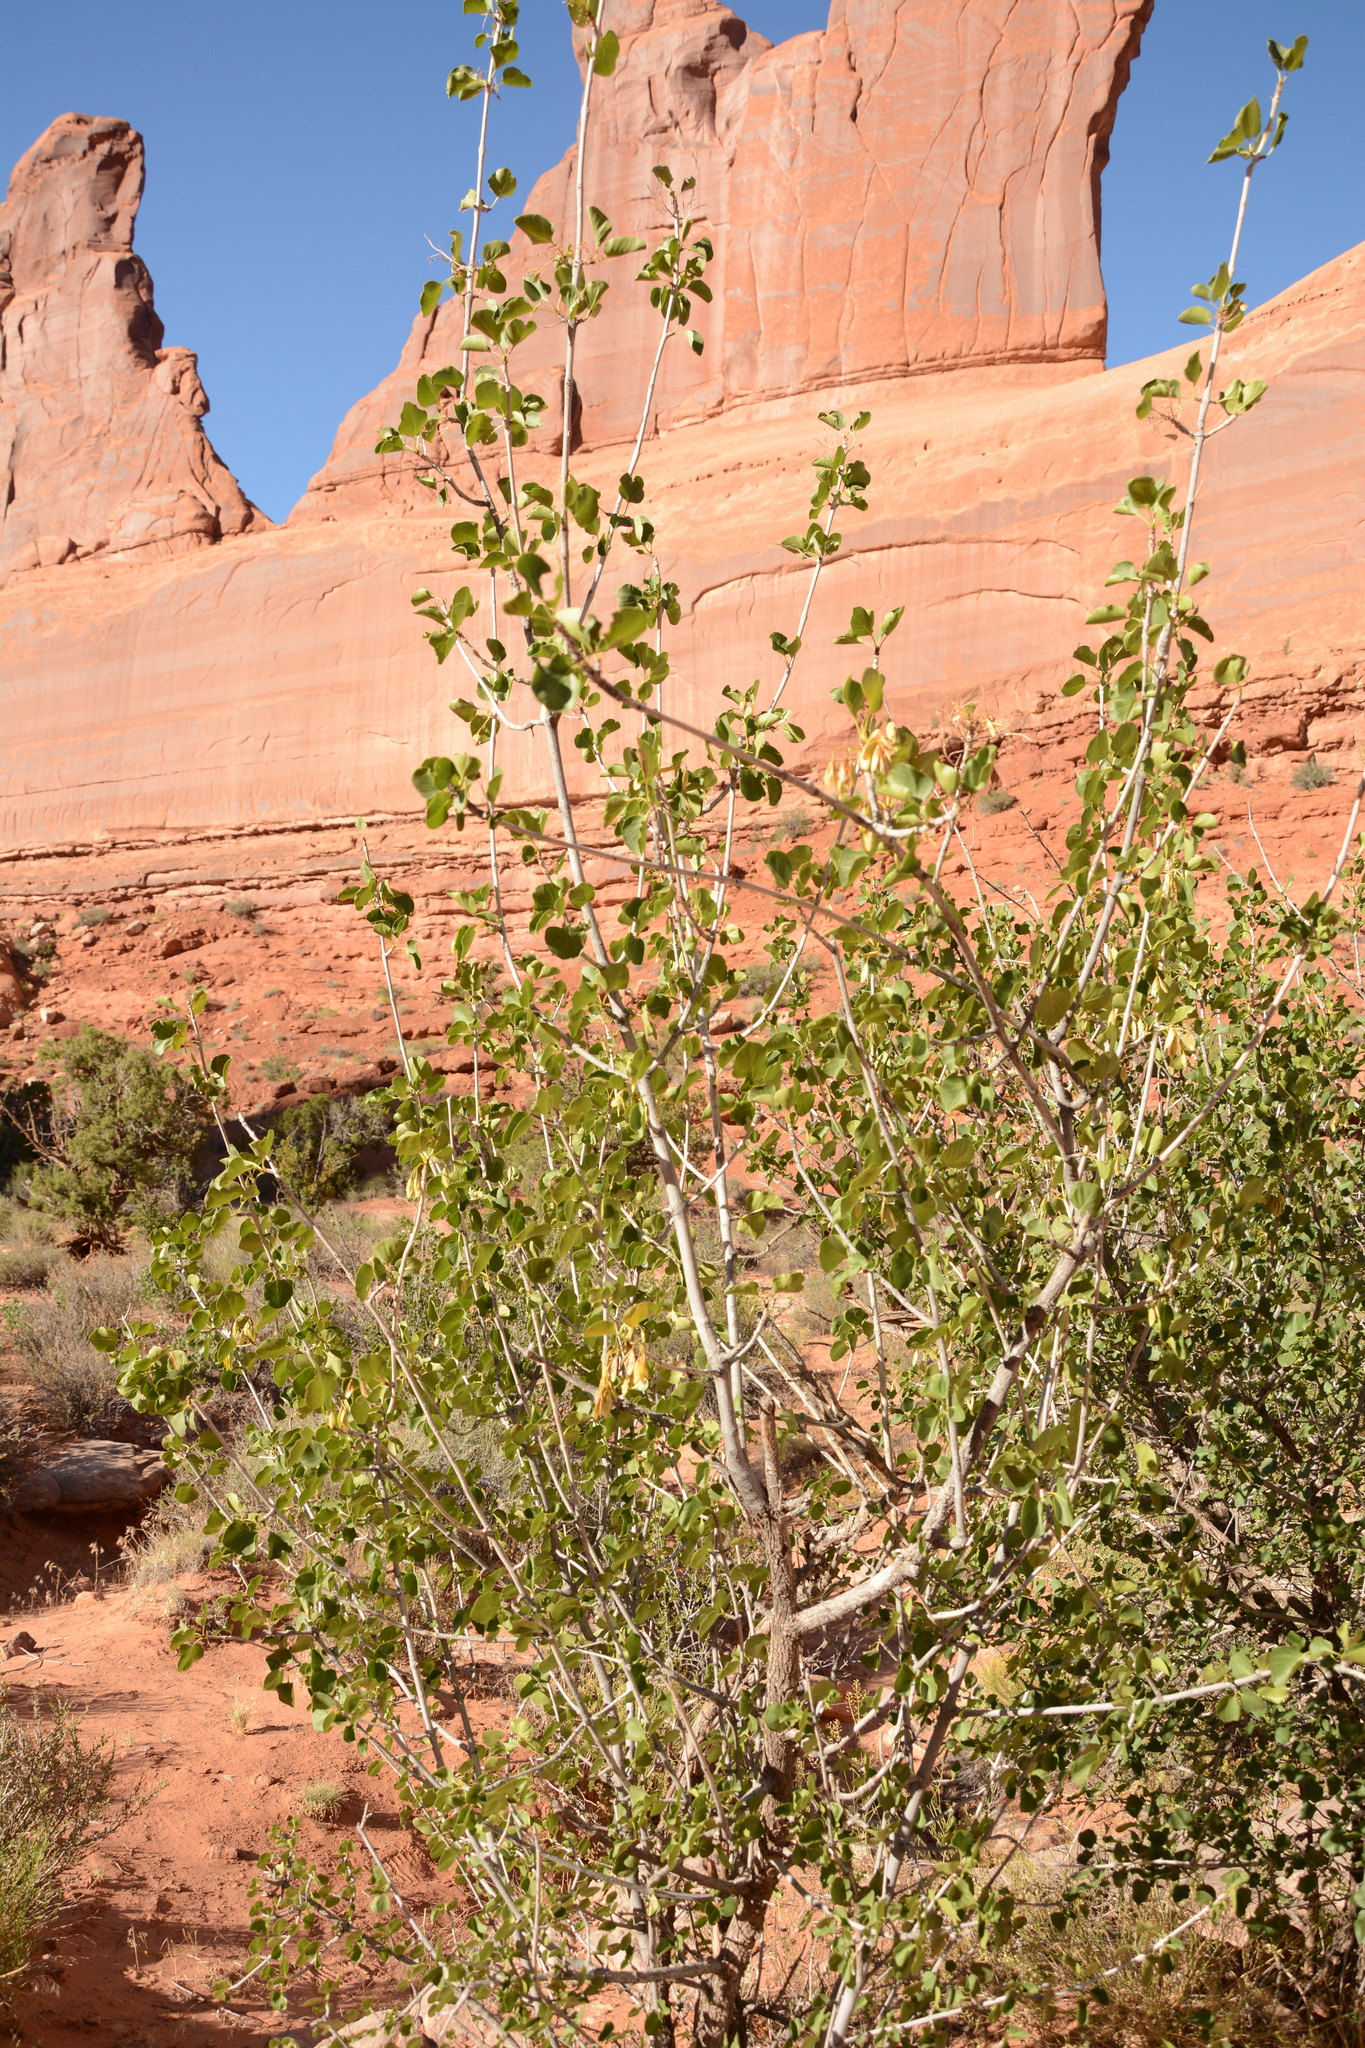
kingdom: Plantae
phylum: Tracheophyta
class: Magnoliopsida
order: Lamiales
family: Oleaceae
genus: Fraxinus
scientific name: Fraxinus anomala
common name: Utah ash
